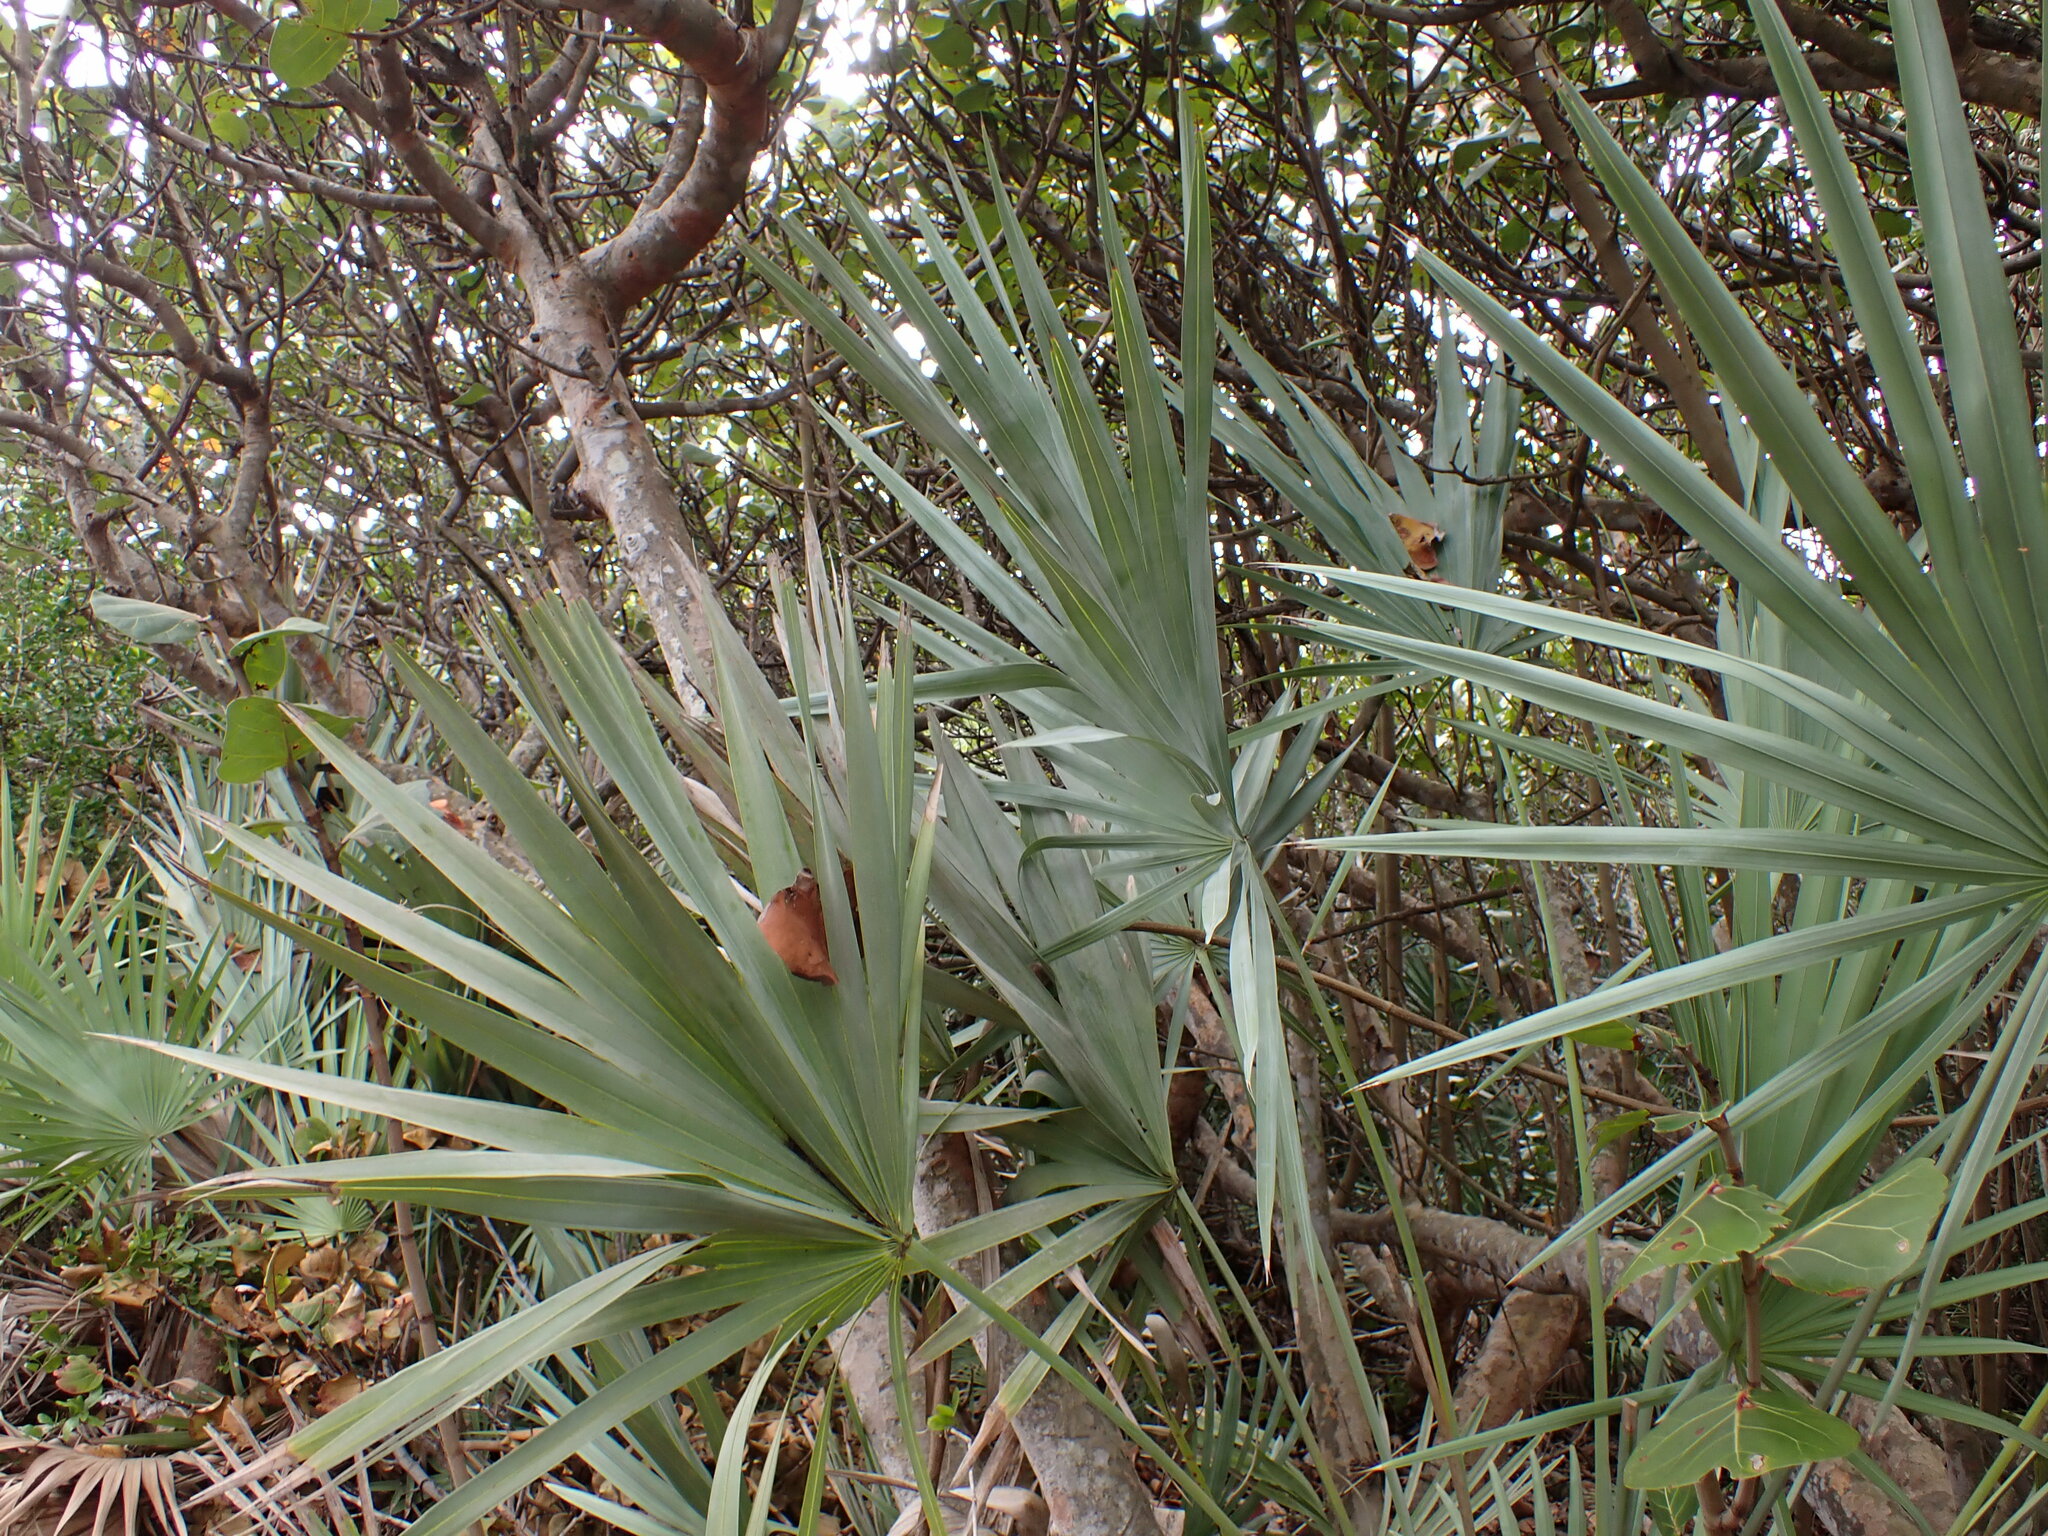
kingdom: Plantae
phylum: Tracheophyta
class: Liliopsida
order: Arecales
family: Arecaceae
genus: Serenoa
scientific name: Serenoa repens
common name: Saw-palmetto
